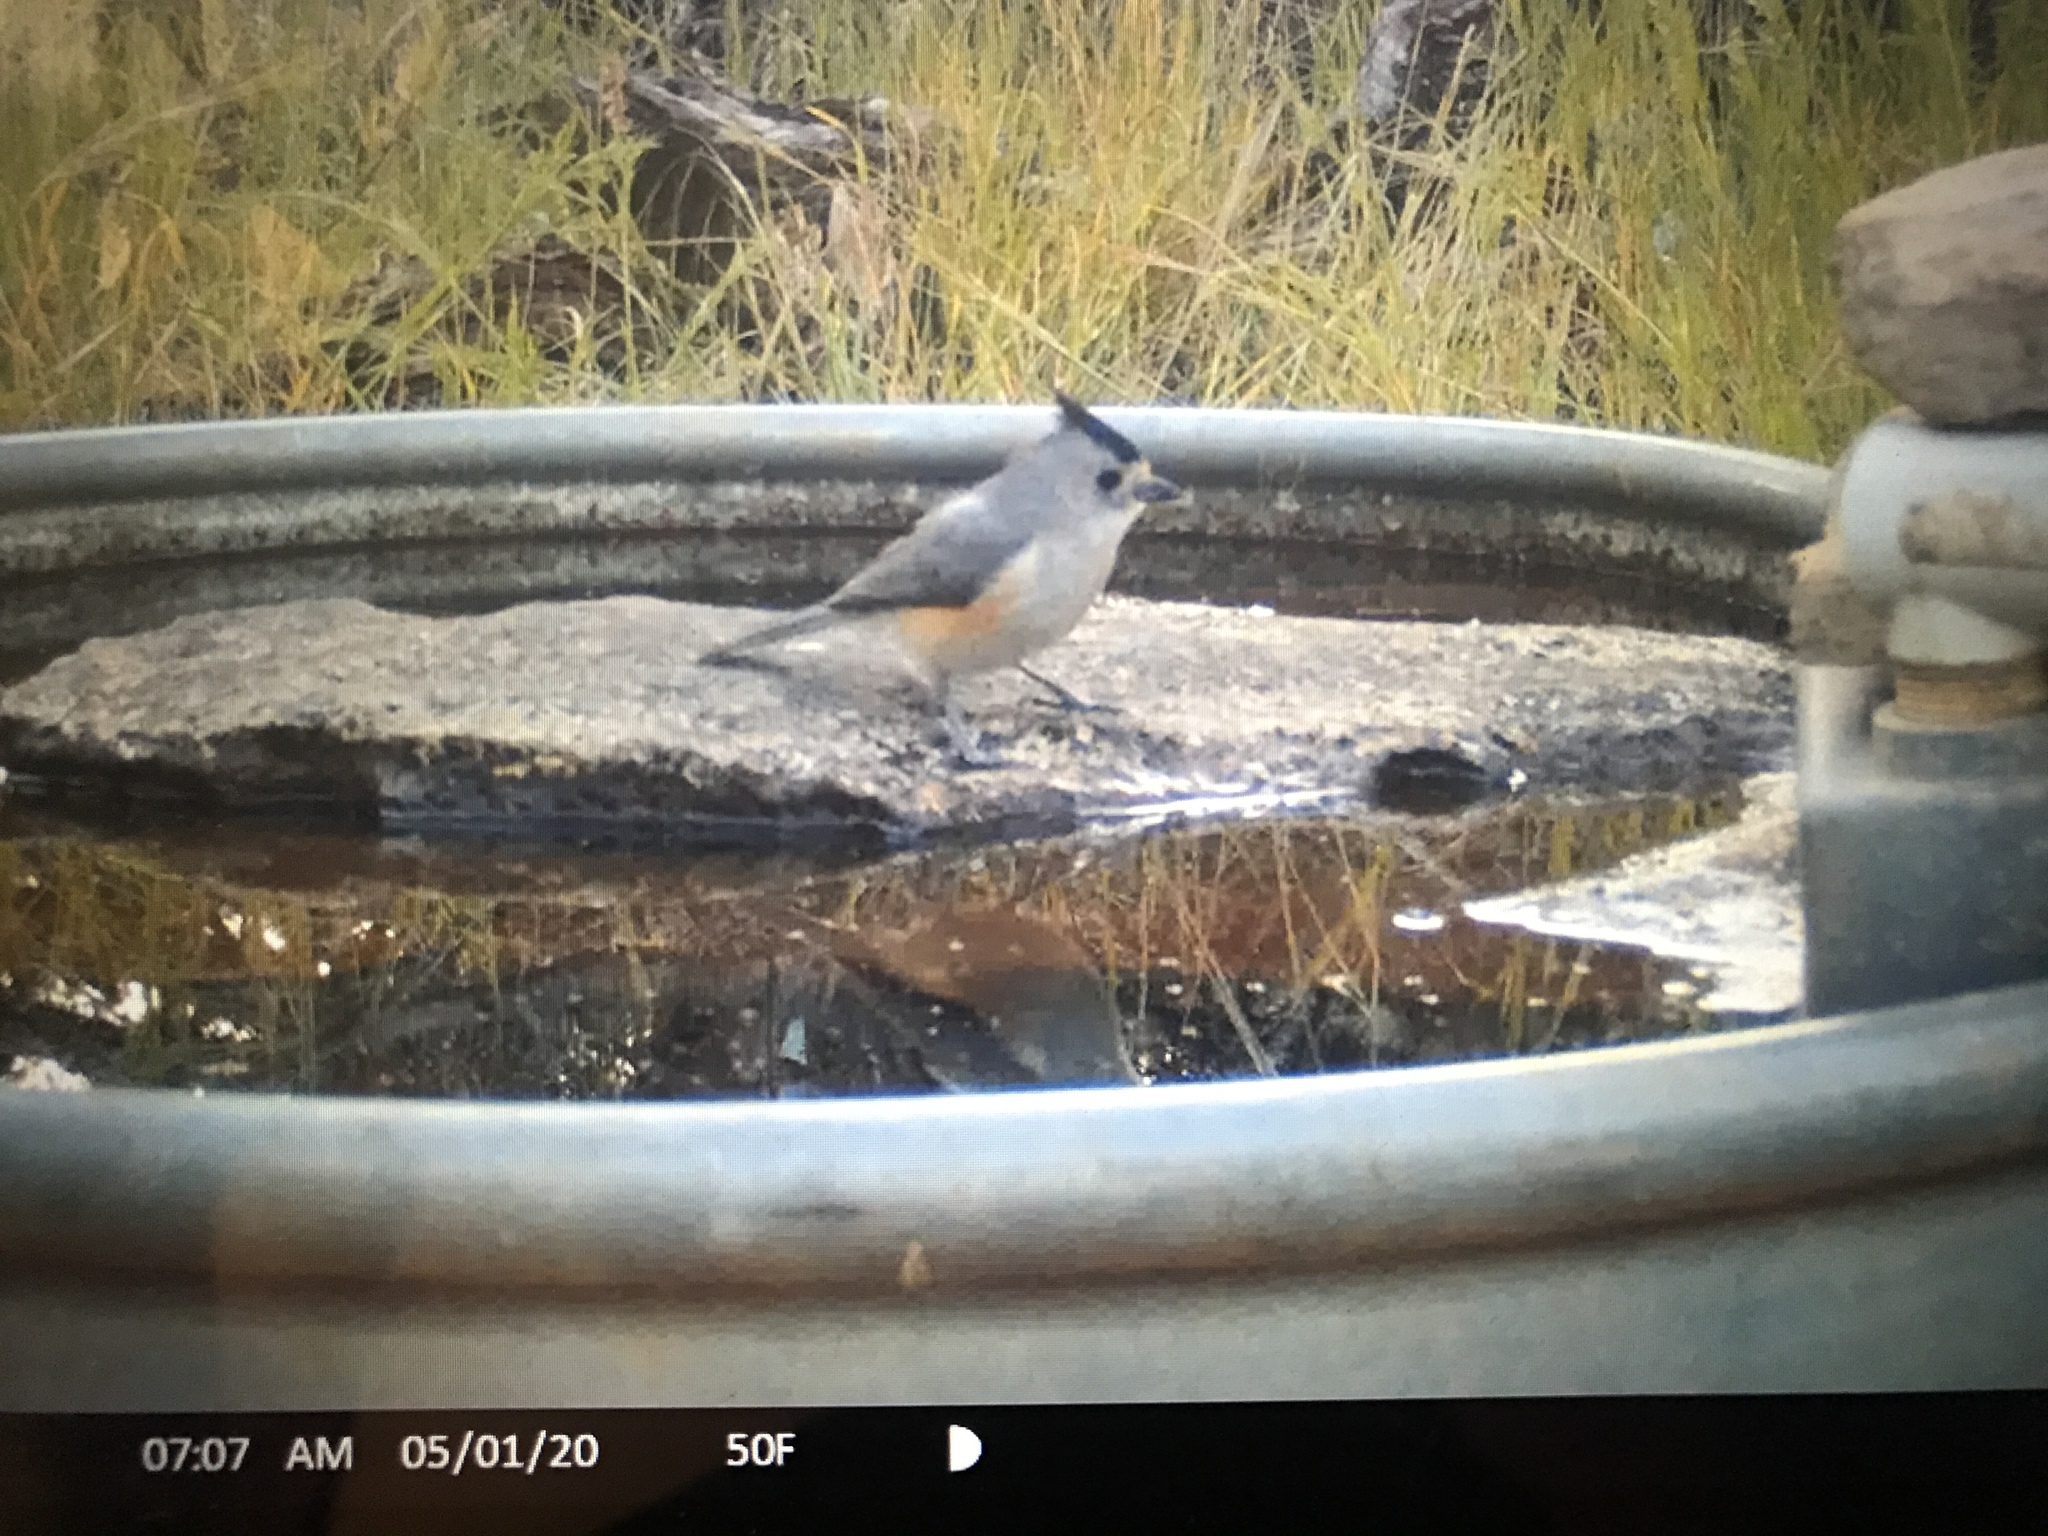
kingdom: Animalia
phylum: Chordata
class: Aves
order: Passeriformes
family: Paridae
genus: Baeolophus
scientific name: Baeolophus atricristatus
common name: Black-crested titmouse
